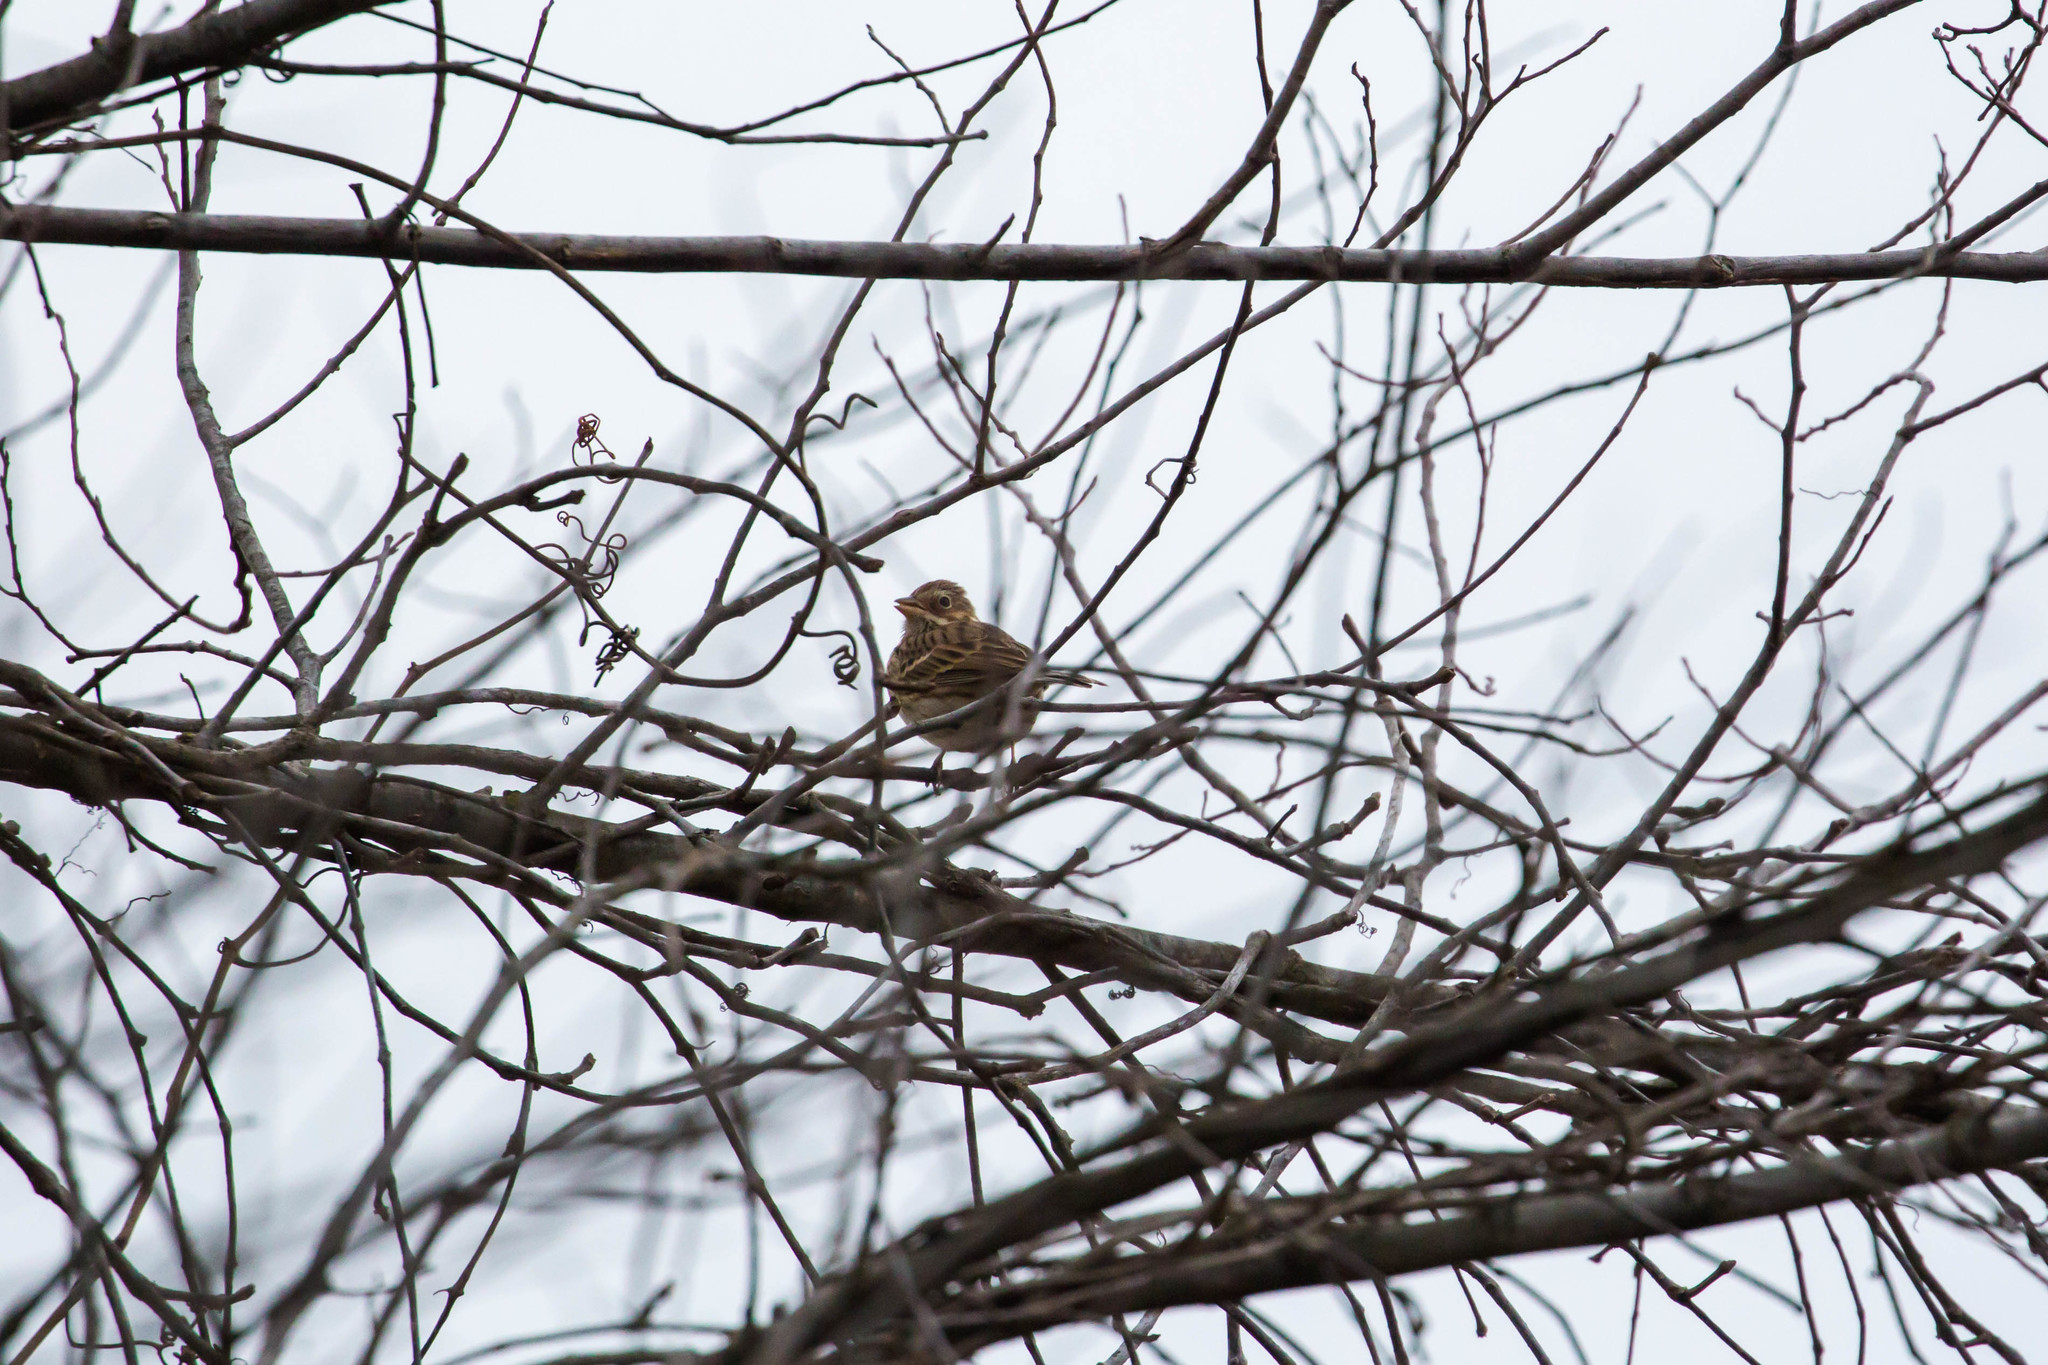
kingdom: Animalia
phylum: Chordata
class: Aves
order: Passeriformes
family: Passerellidae
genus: Pooecetes
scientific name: Pooecetes gramineus
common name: Vesper sparrow
